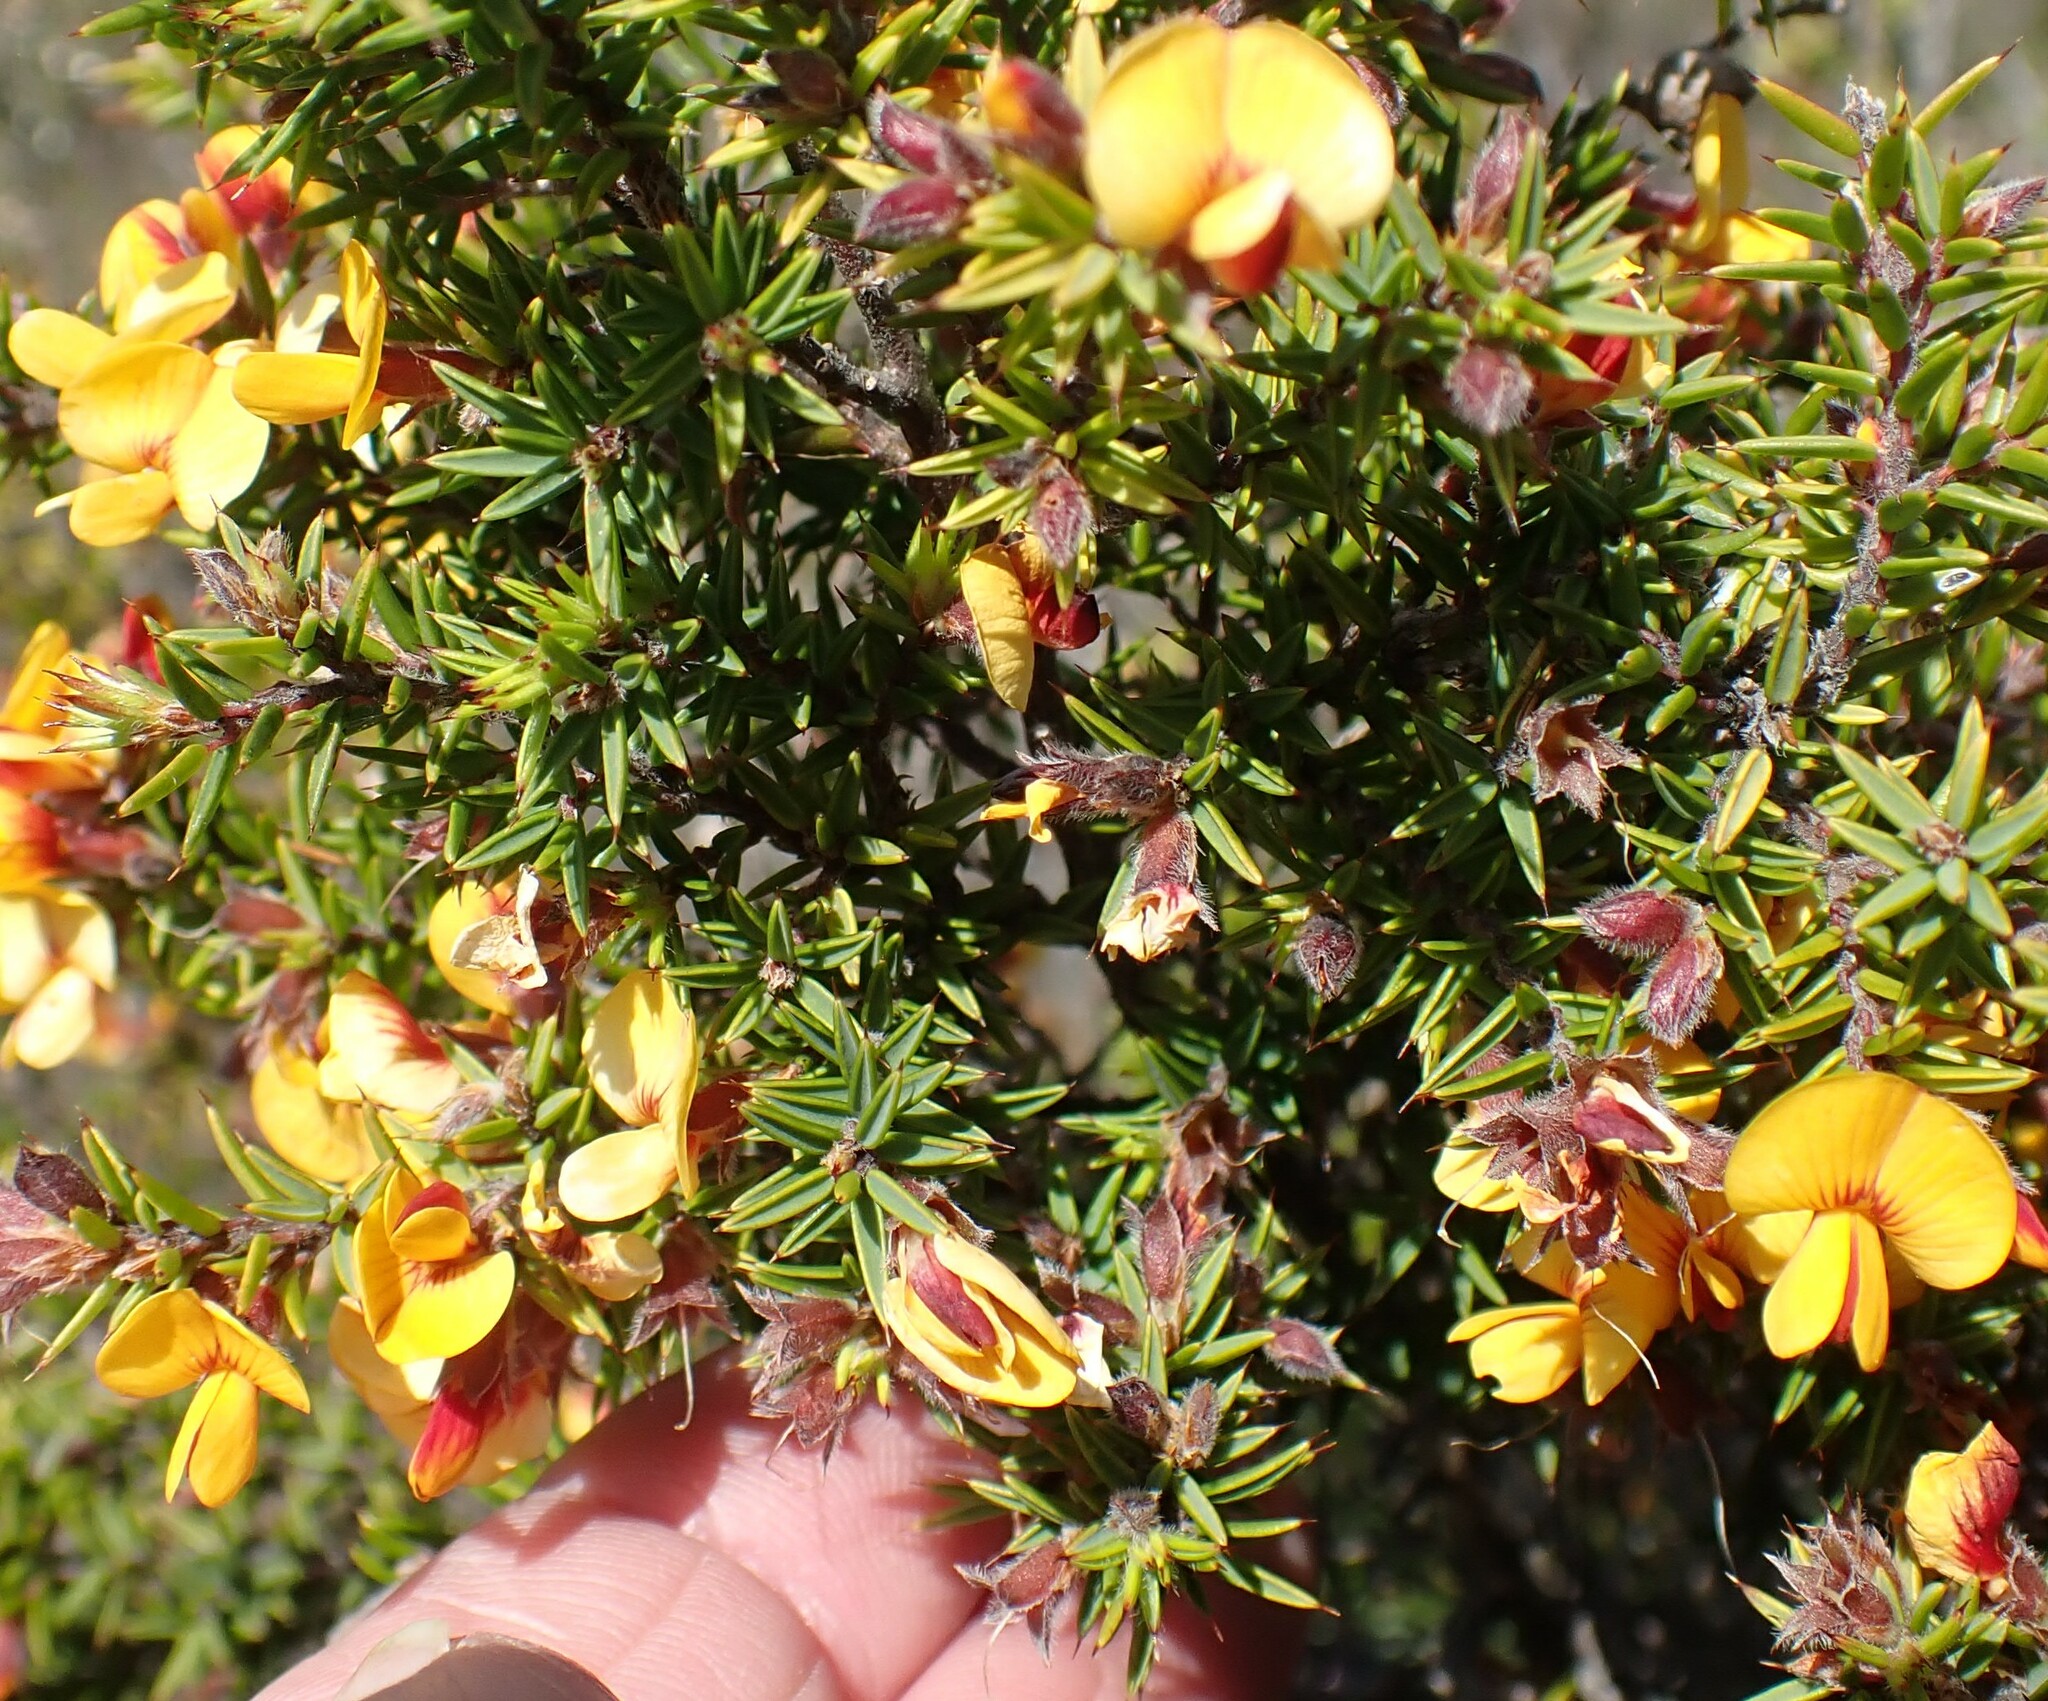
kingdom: Plantae
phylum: Tracheophyta
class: Magnoliopsida
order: Fabales
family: Fabaceae
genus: Pultenaea
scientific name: Pultenaea juniperina
